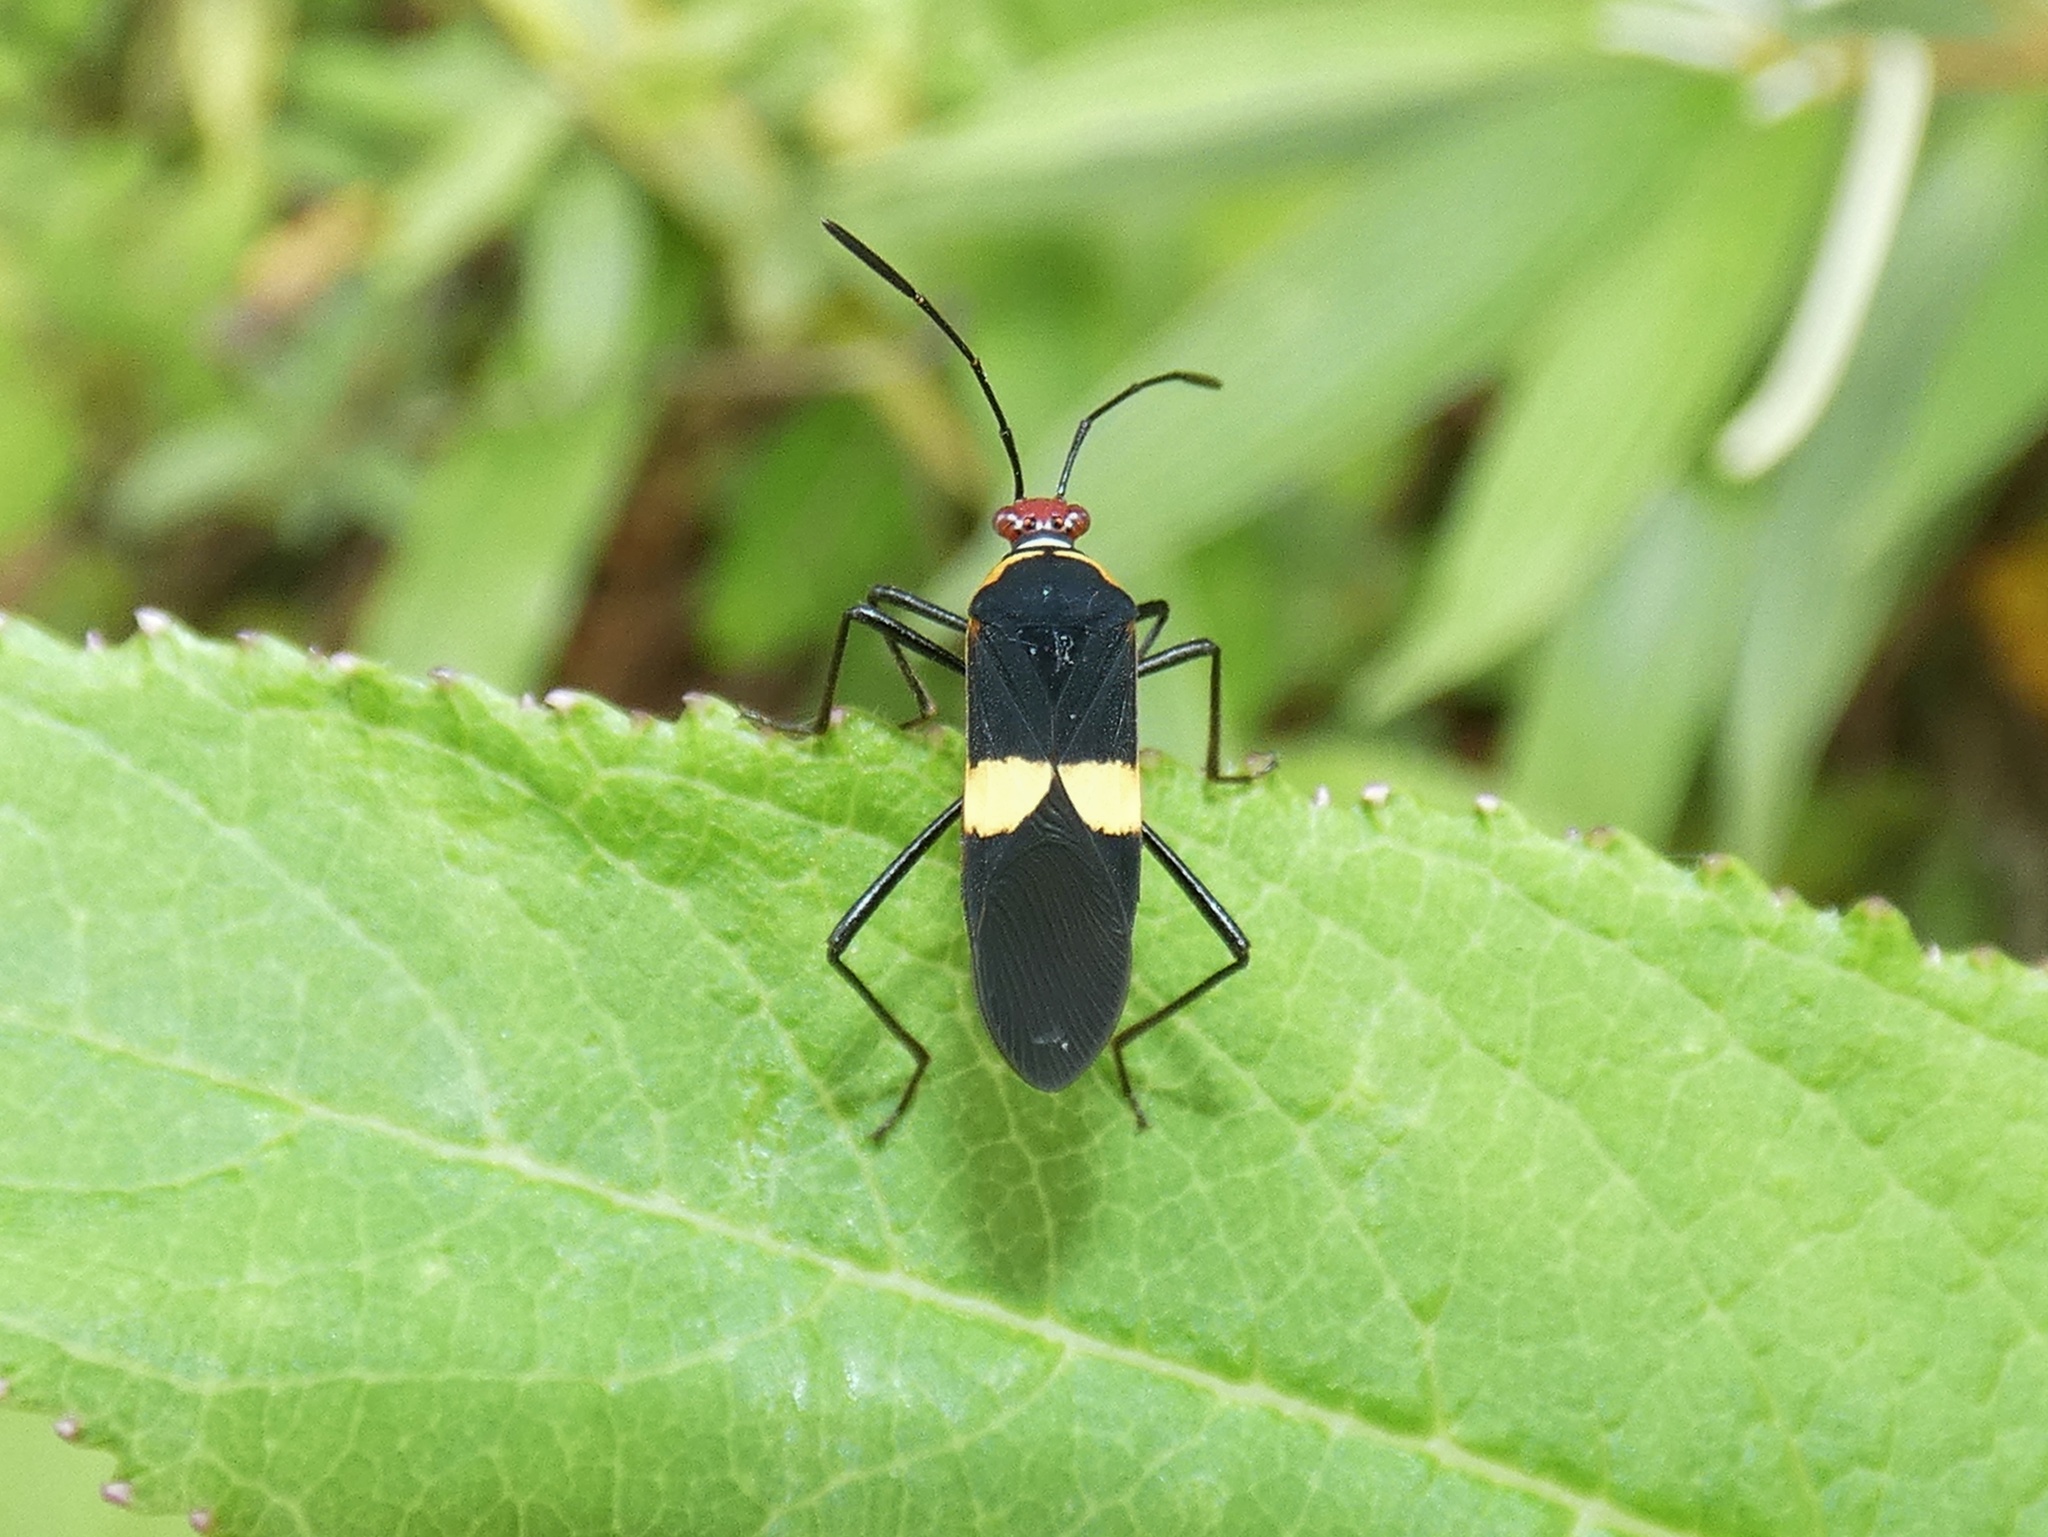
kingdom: Animalia
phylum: Arthropoda
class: Insecta
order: Hemiptera
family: Coreidae
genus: Hypselonotus
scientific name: Hypselonotus interruptus
